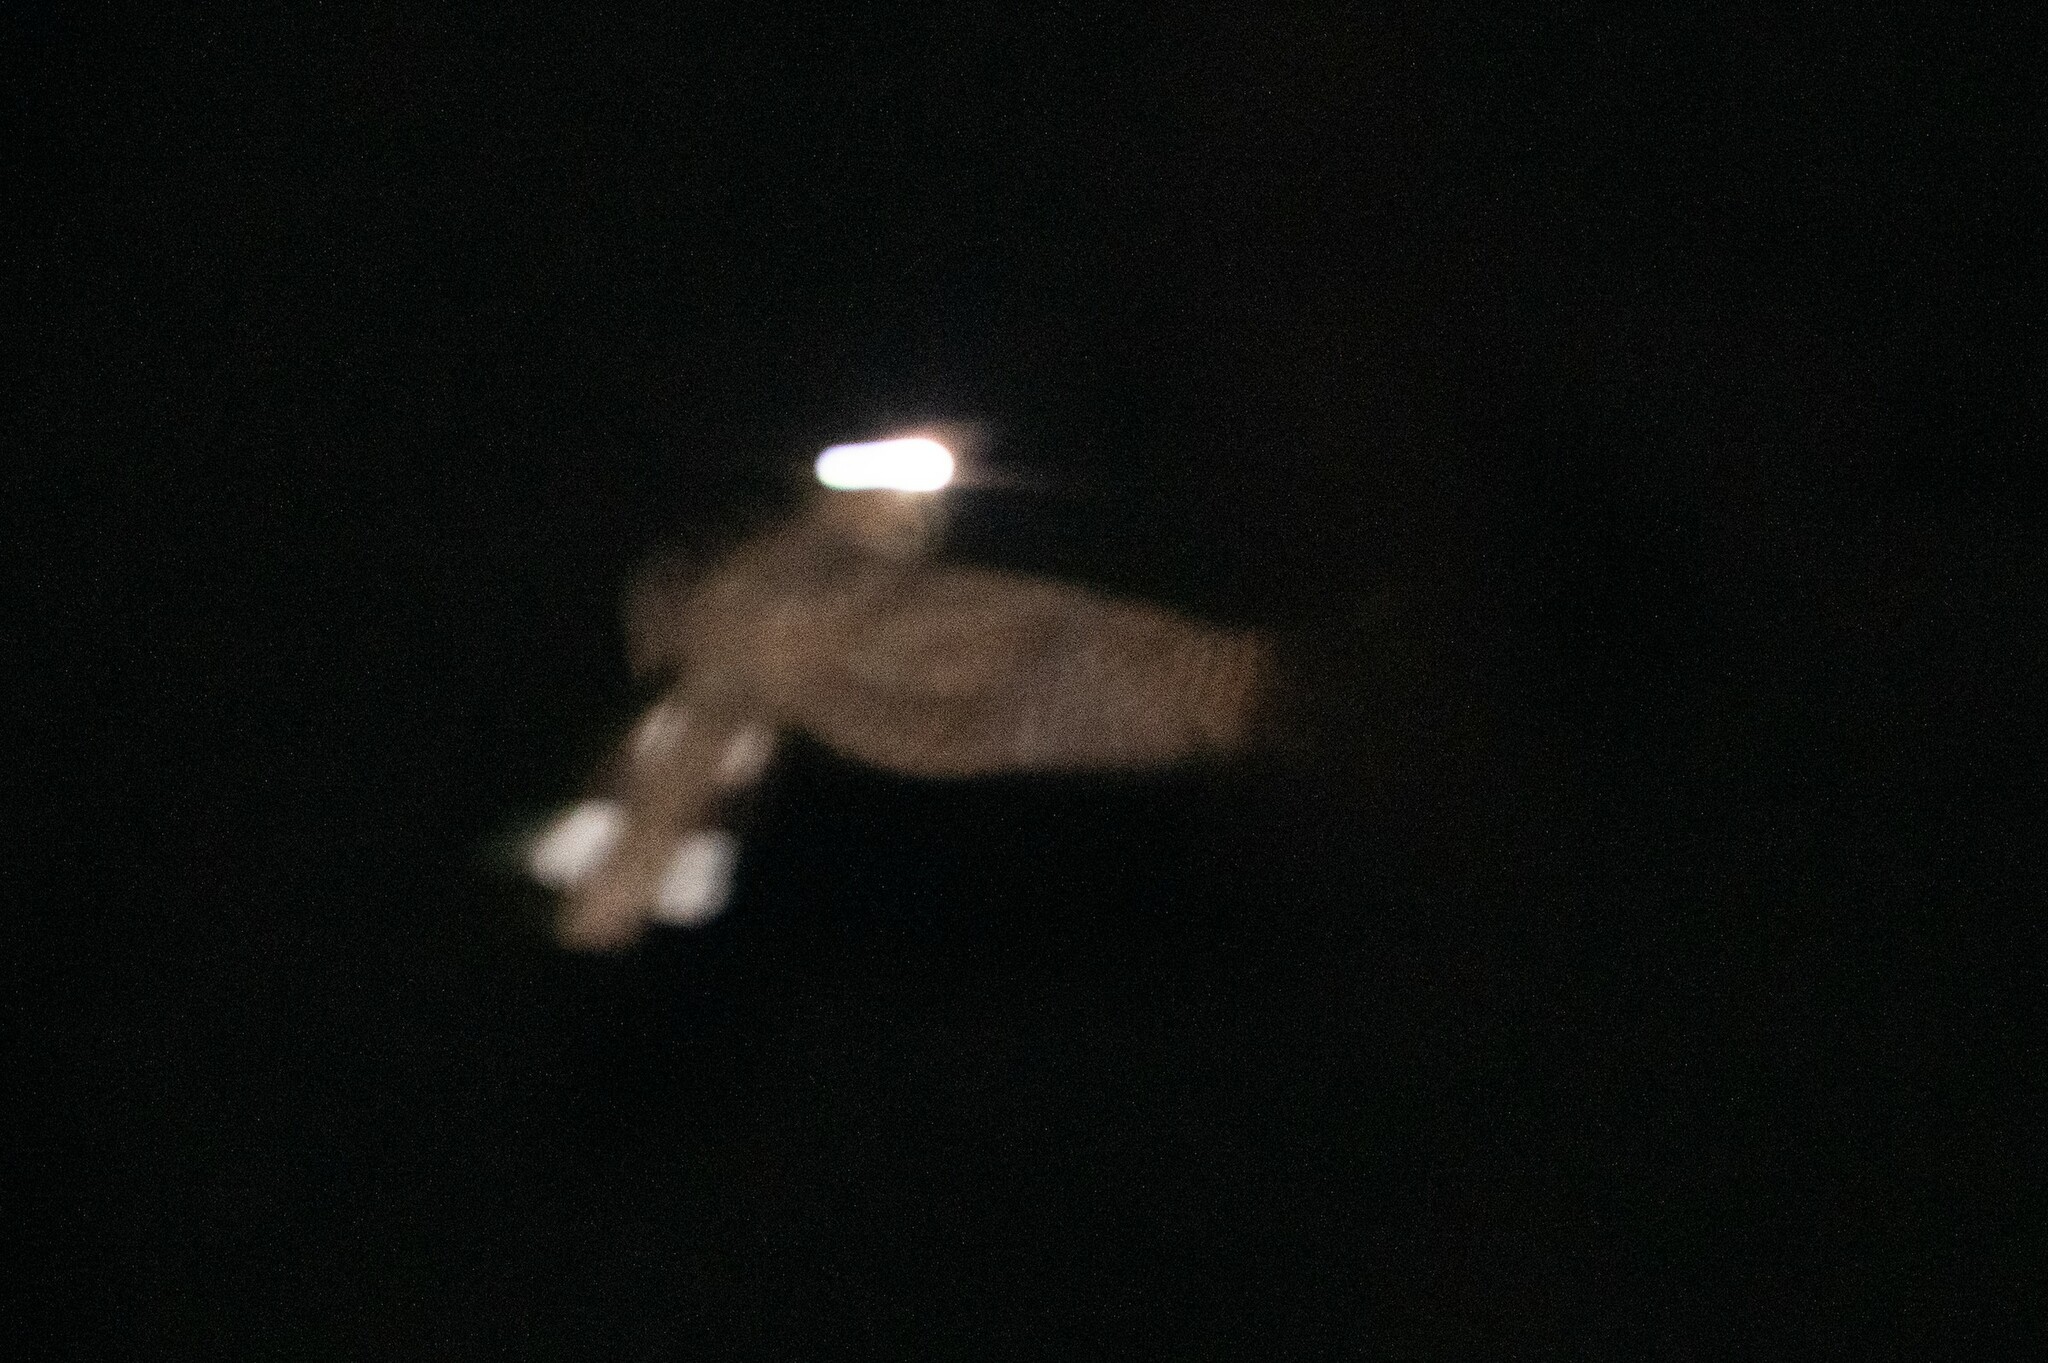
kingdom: Animalia
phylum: Chordata
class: Aves
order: Caprimulgiformes
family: Caprimulgidae
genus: Antrostomus
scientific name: Antrostomus arizonae
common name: Mexican whip-poor-will
